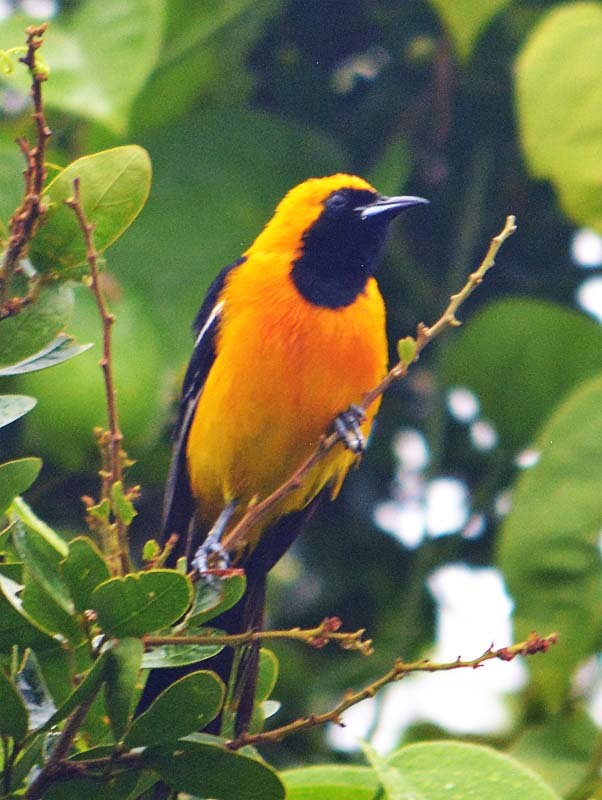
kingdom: Animalia
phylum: Chordata
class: Aves
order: Passeriformes
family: Icteridae
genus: Icterus
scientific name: Icterus cucullatus
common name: Hooded oriole
